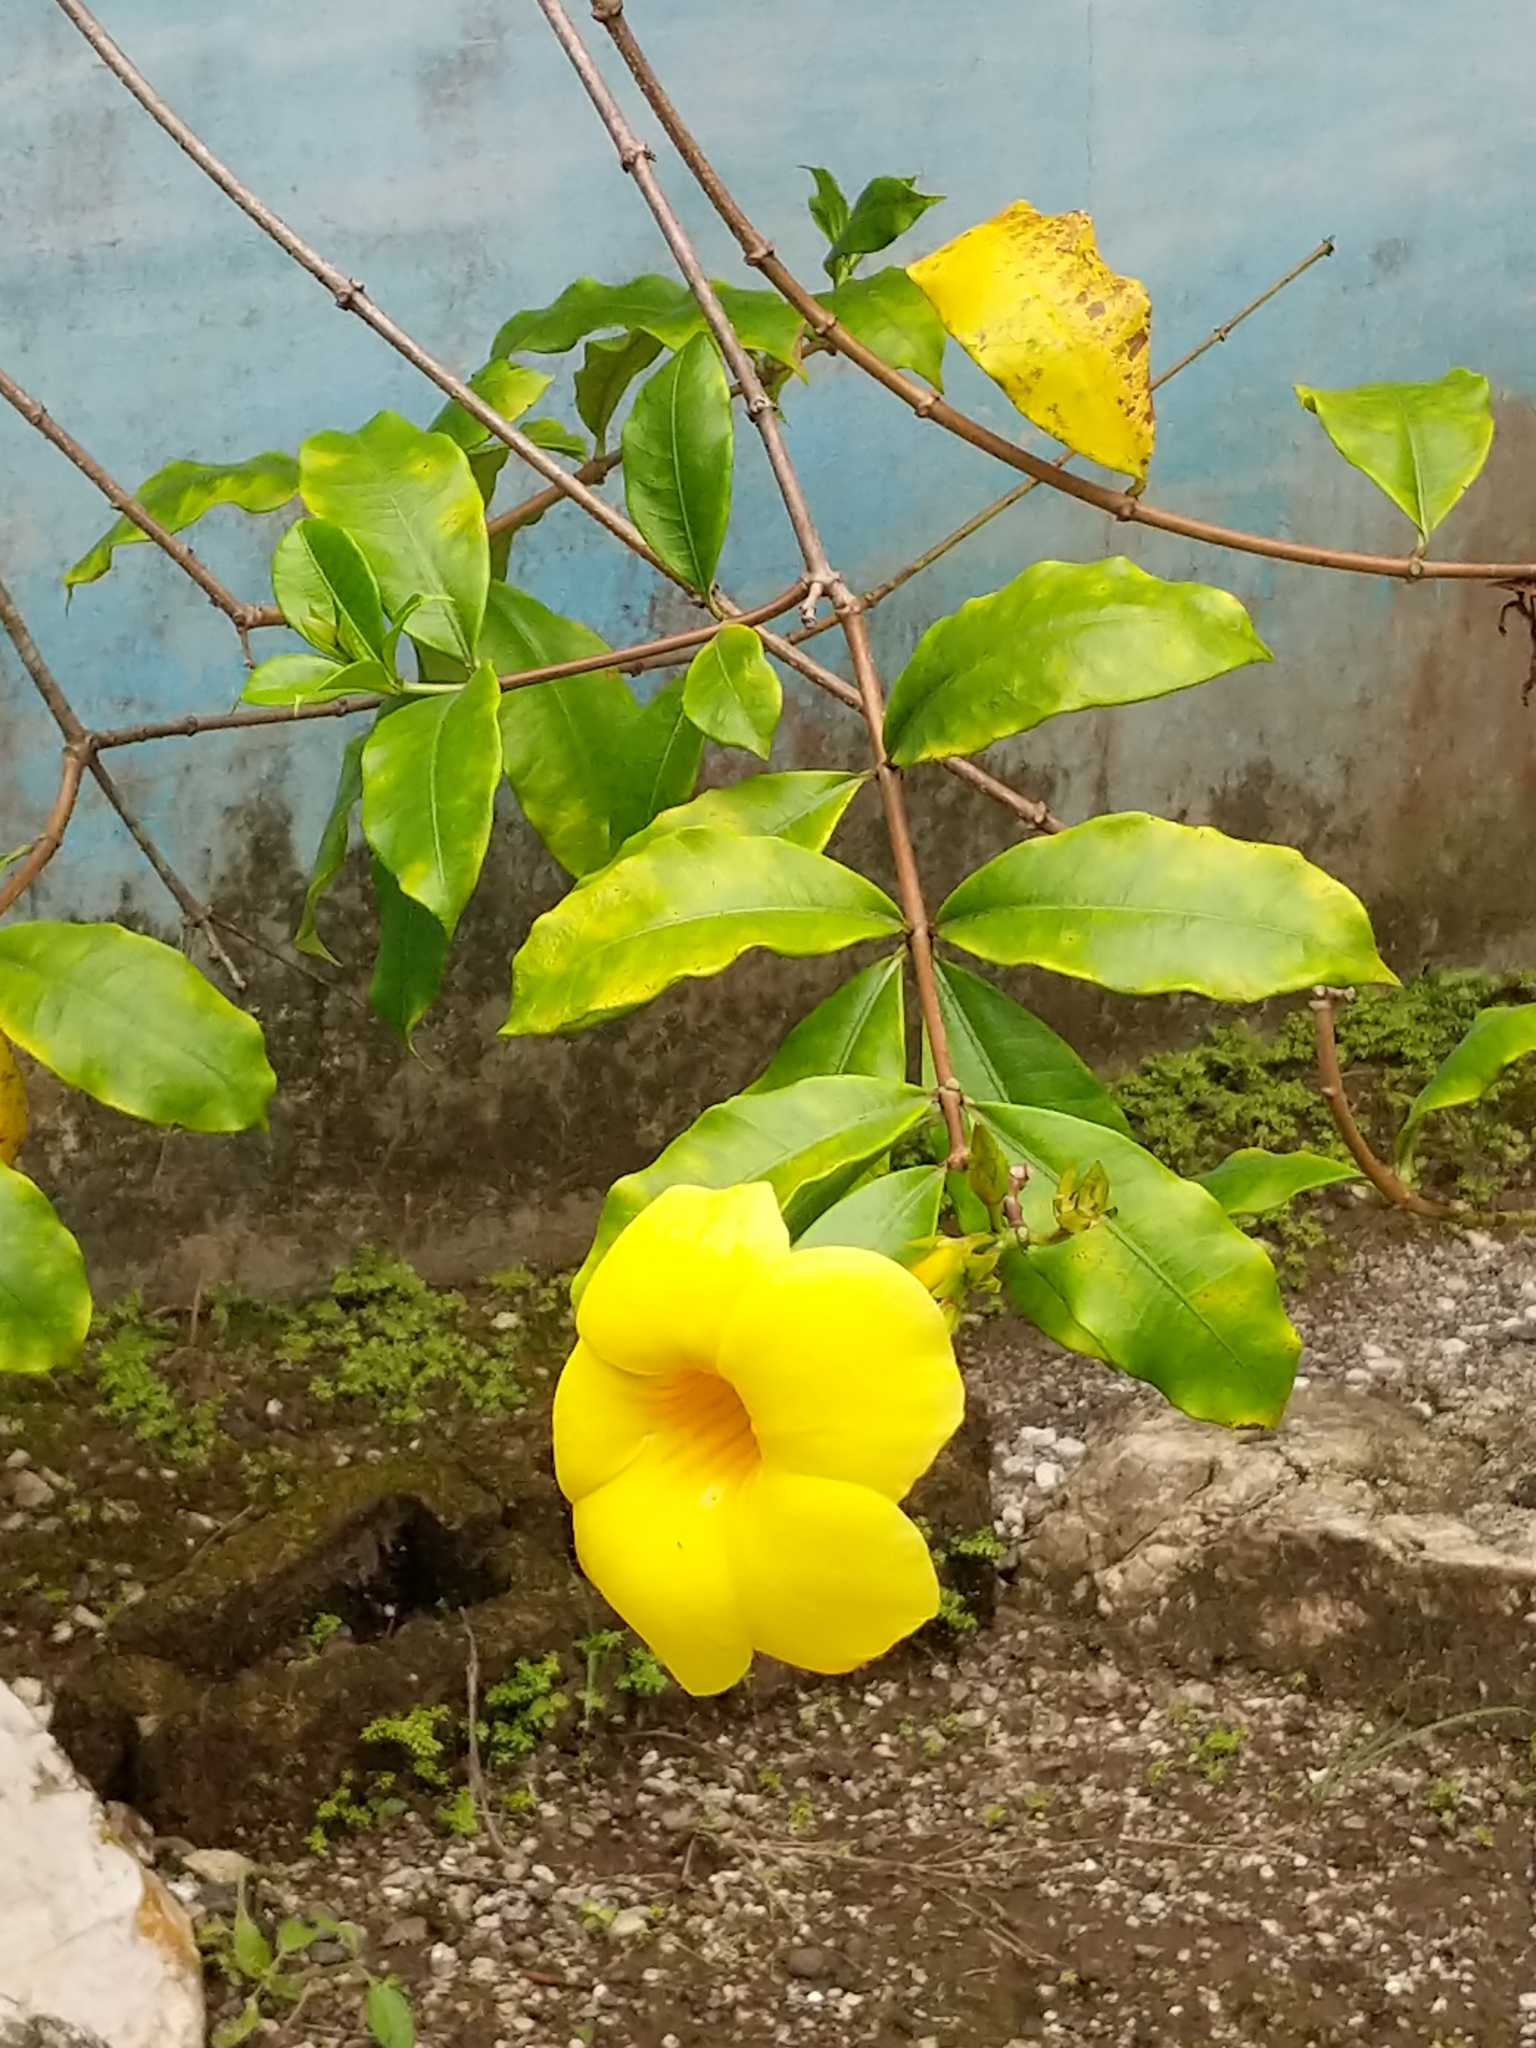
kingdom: Plantae
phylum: Tracheophyta
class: Magnoliopsida
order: Gentianales
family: Apocynaceae
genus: Allamanda
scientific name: Allamanda cathartica
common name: Golden trumpet
